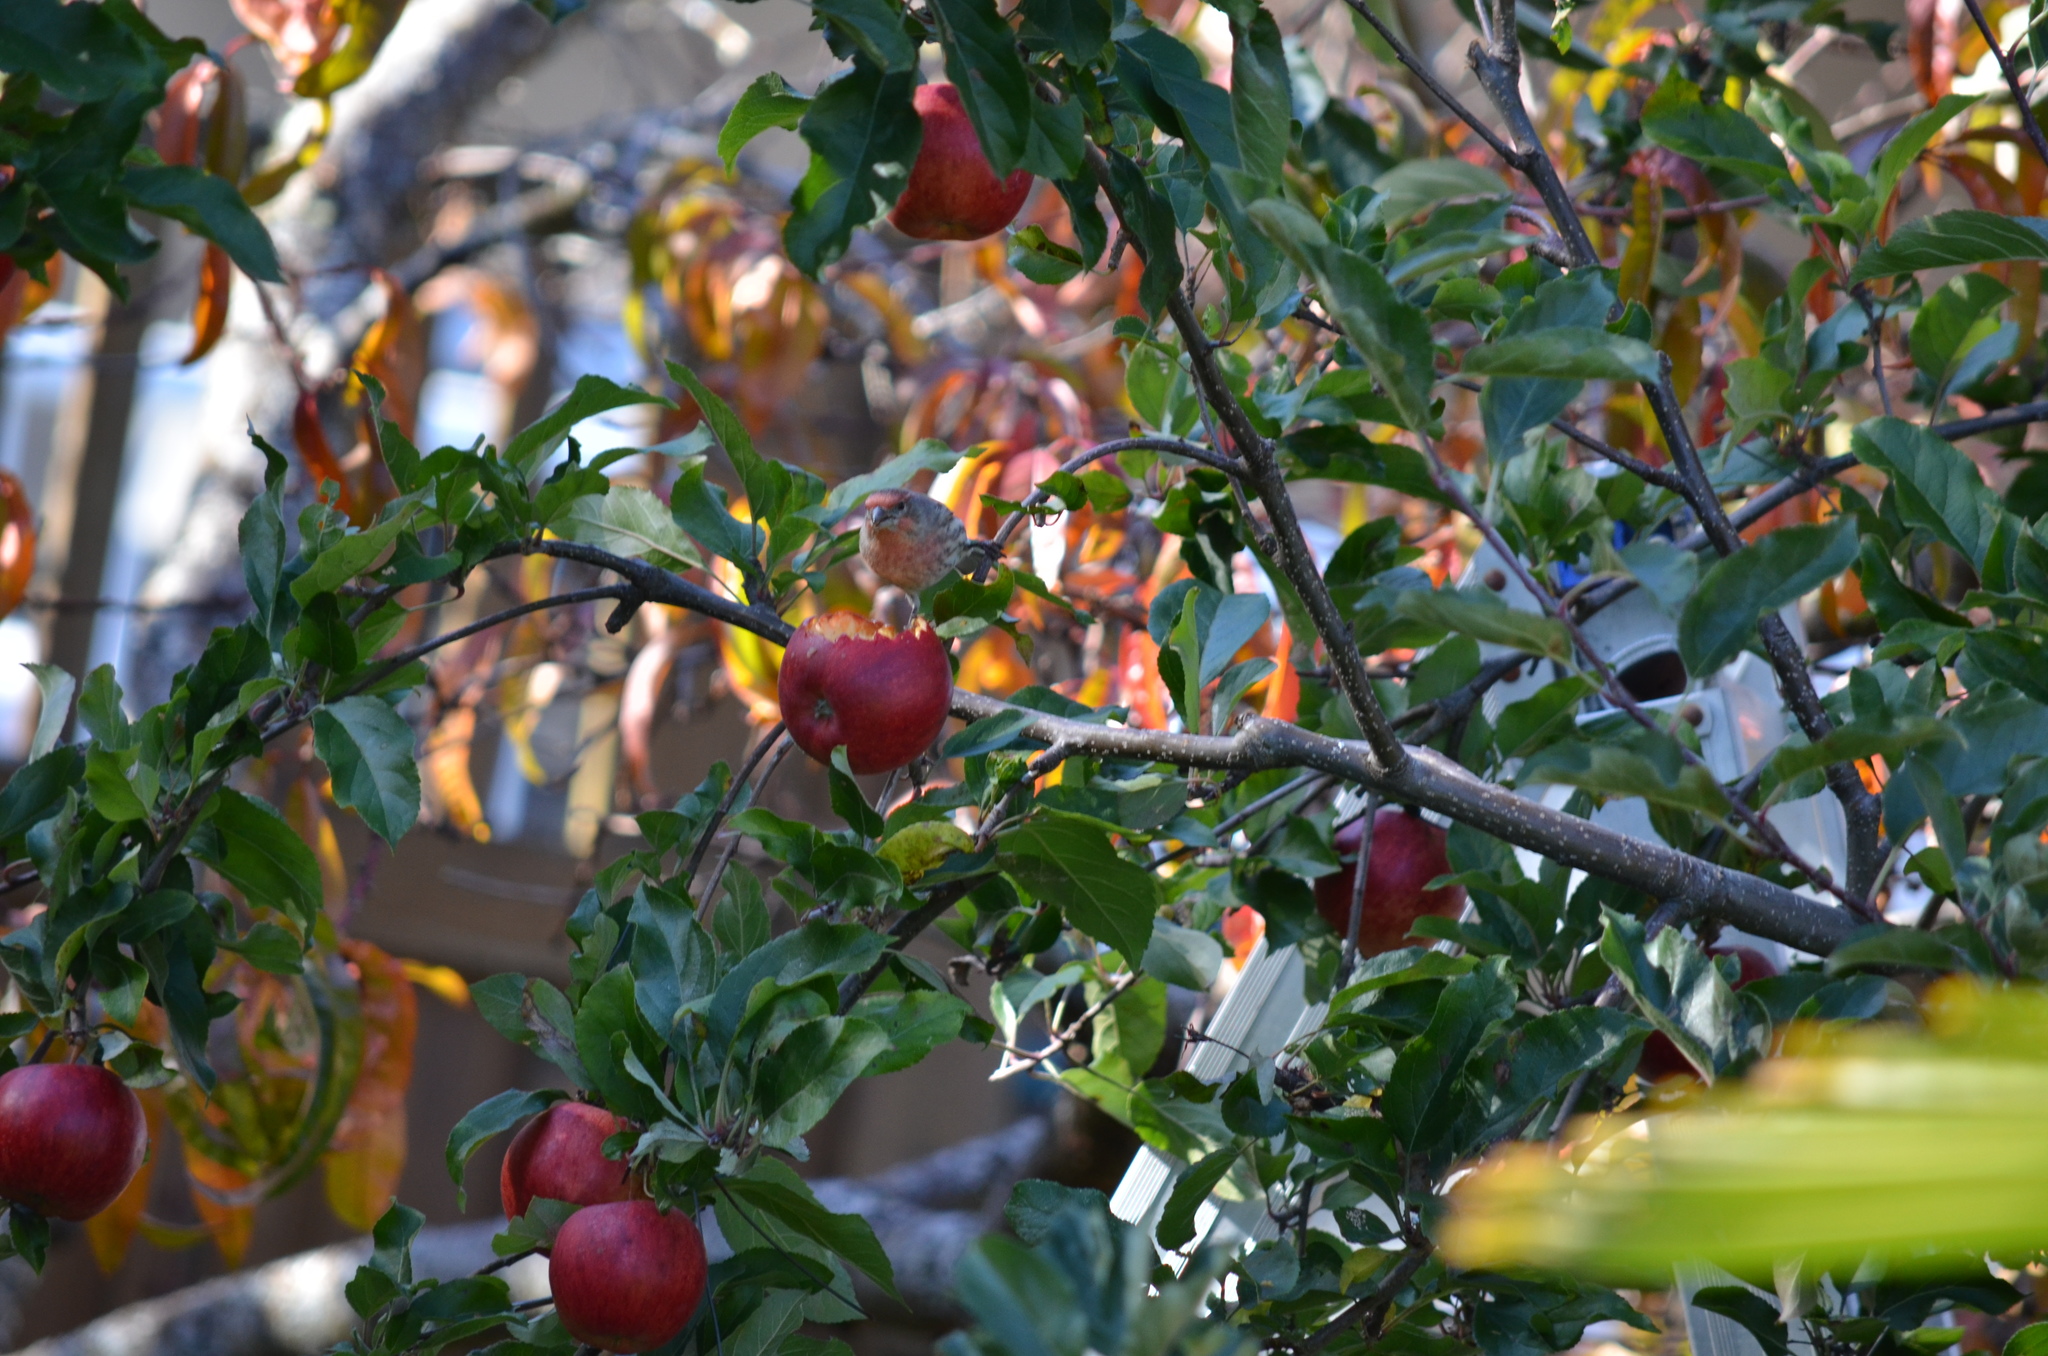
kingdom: Animalia
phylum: Chordata
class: Aves
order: Passeriformes
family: Fringillidae
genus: Haemorhous
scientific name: Haemorhous mexicanus
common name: House finch
